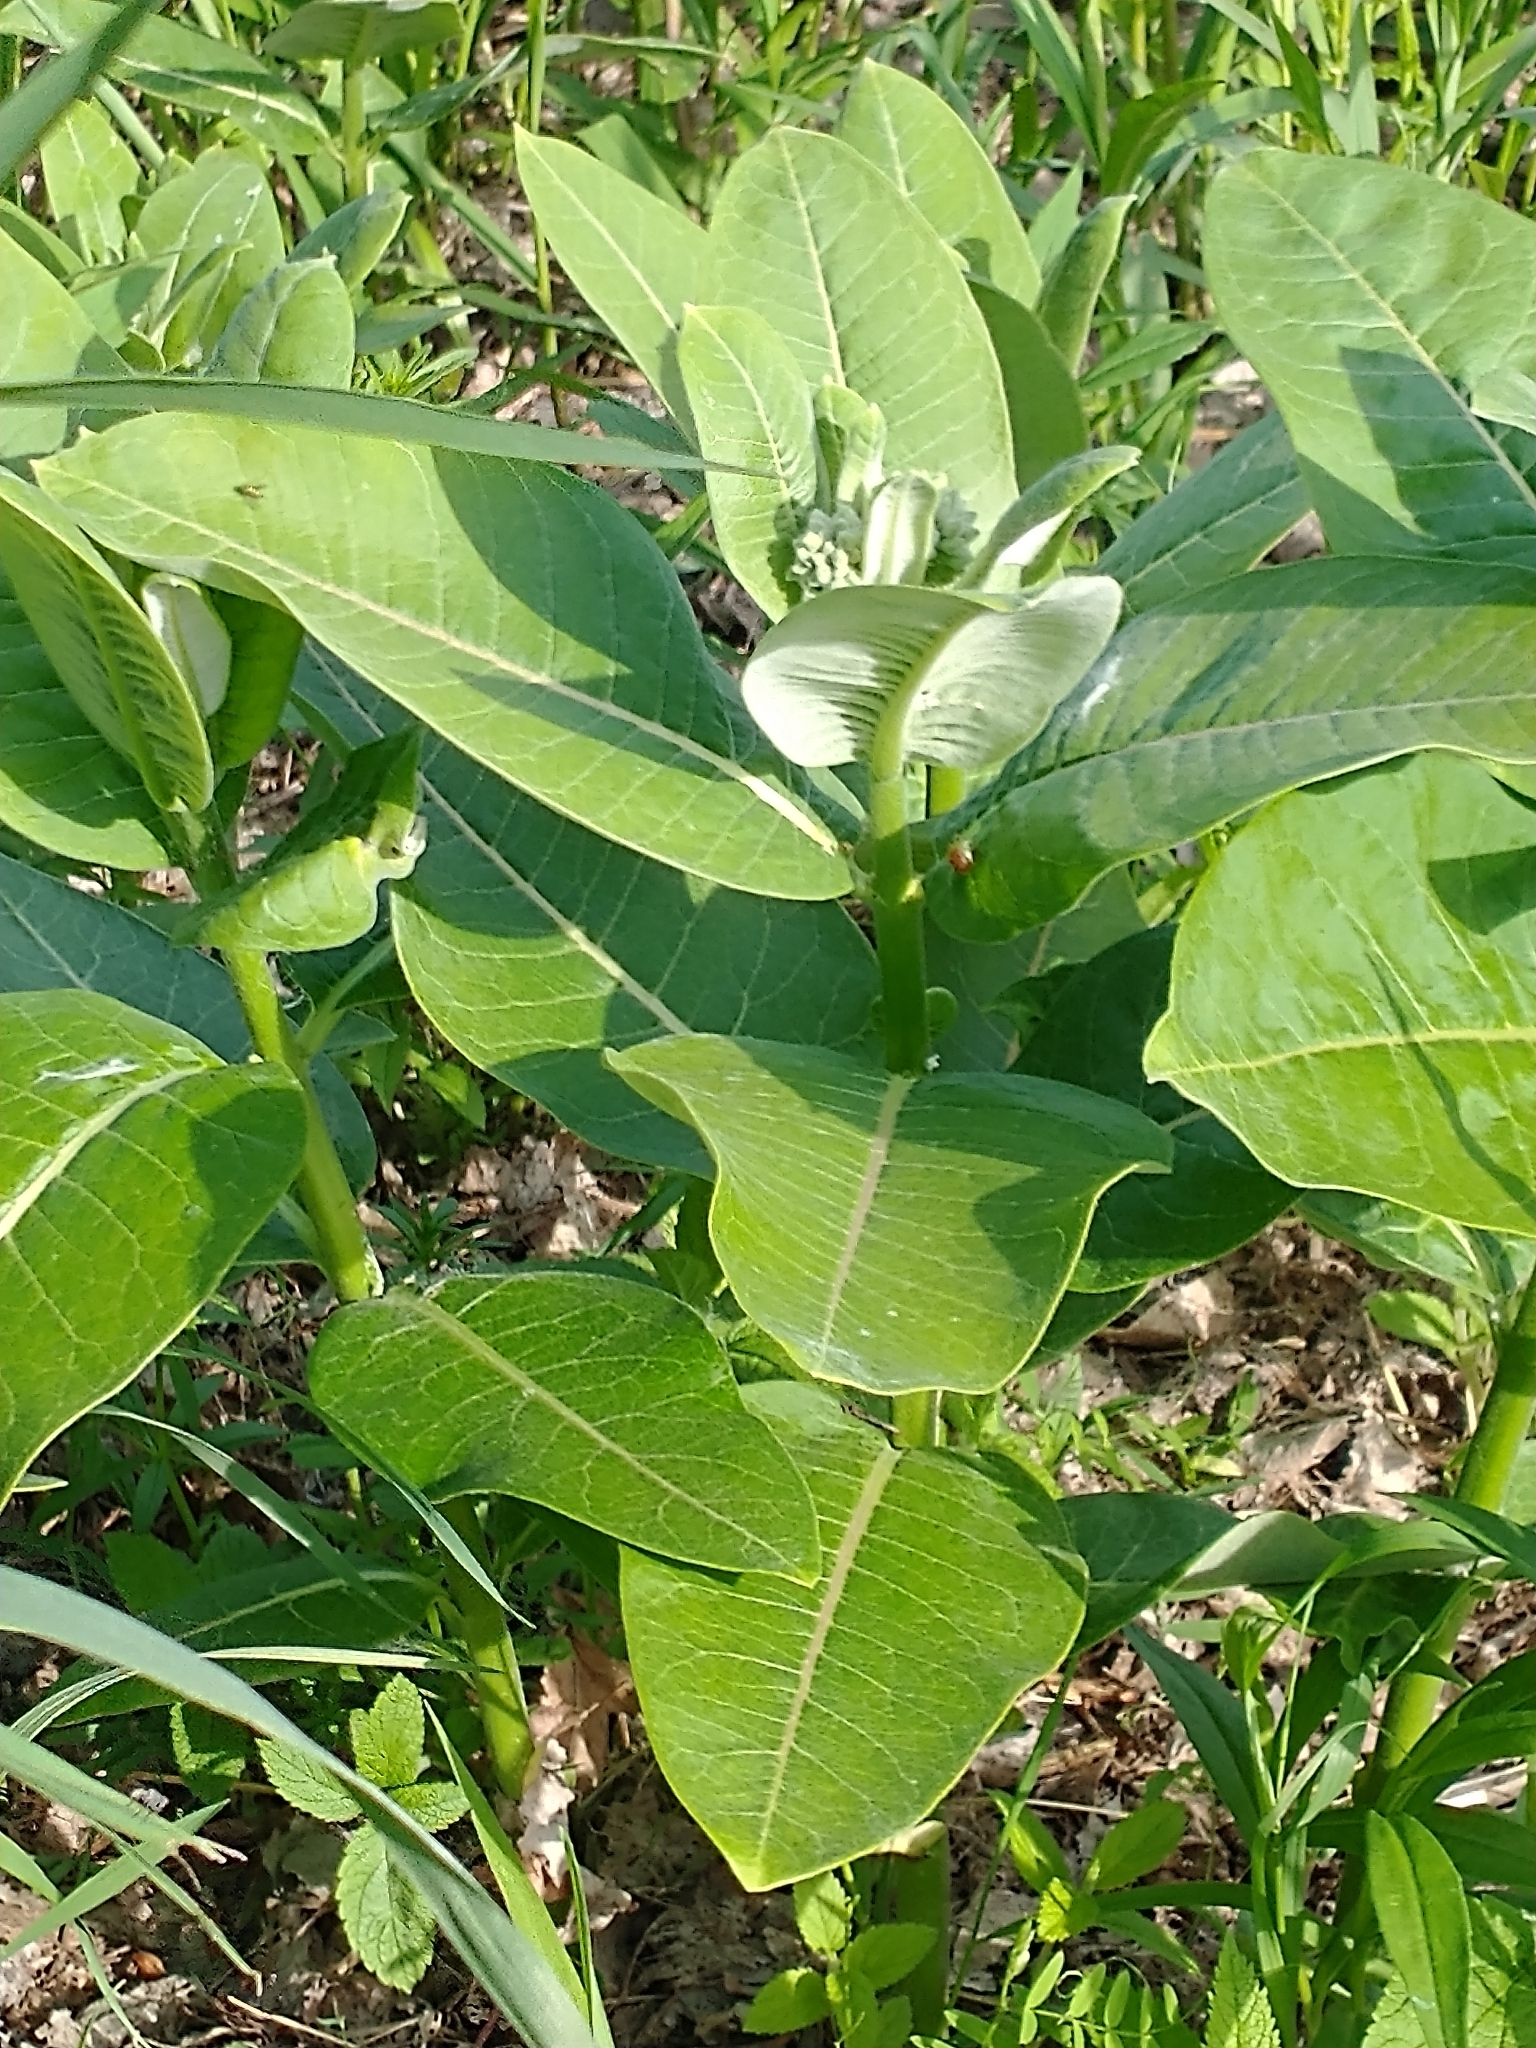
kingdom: Plantae
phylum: Tracheophyta
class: Magnoliopsida
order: Gentianales
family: Apocynaceae
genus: Asclepias
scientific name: Asclepias syriaca
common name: Common milkweed
